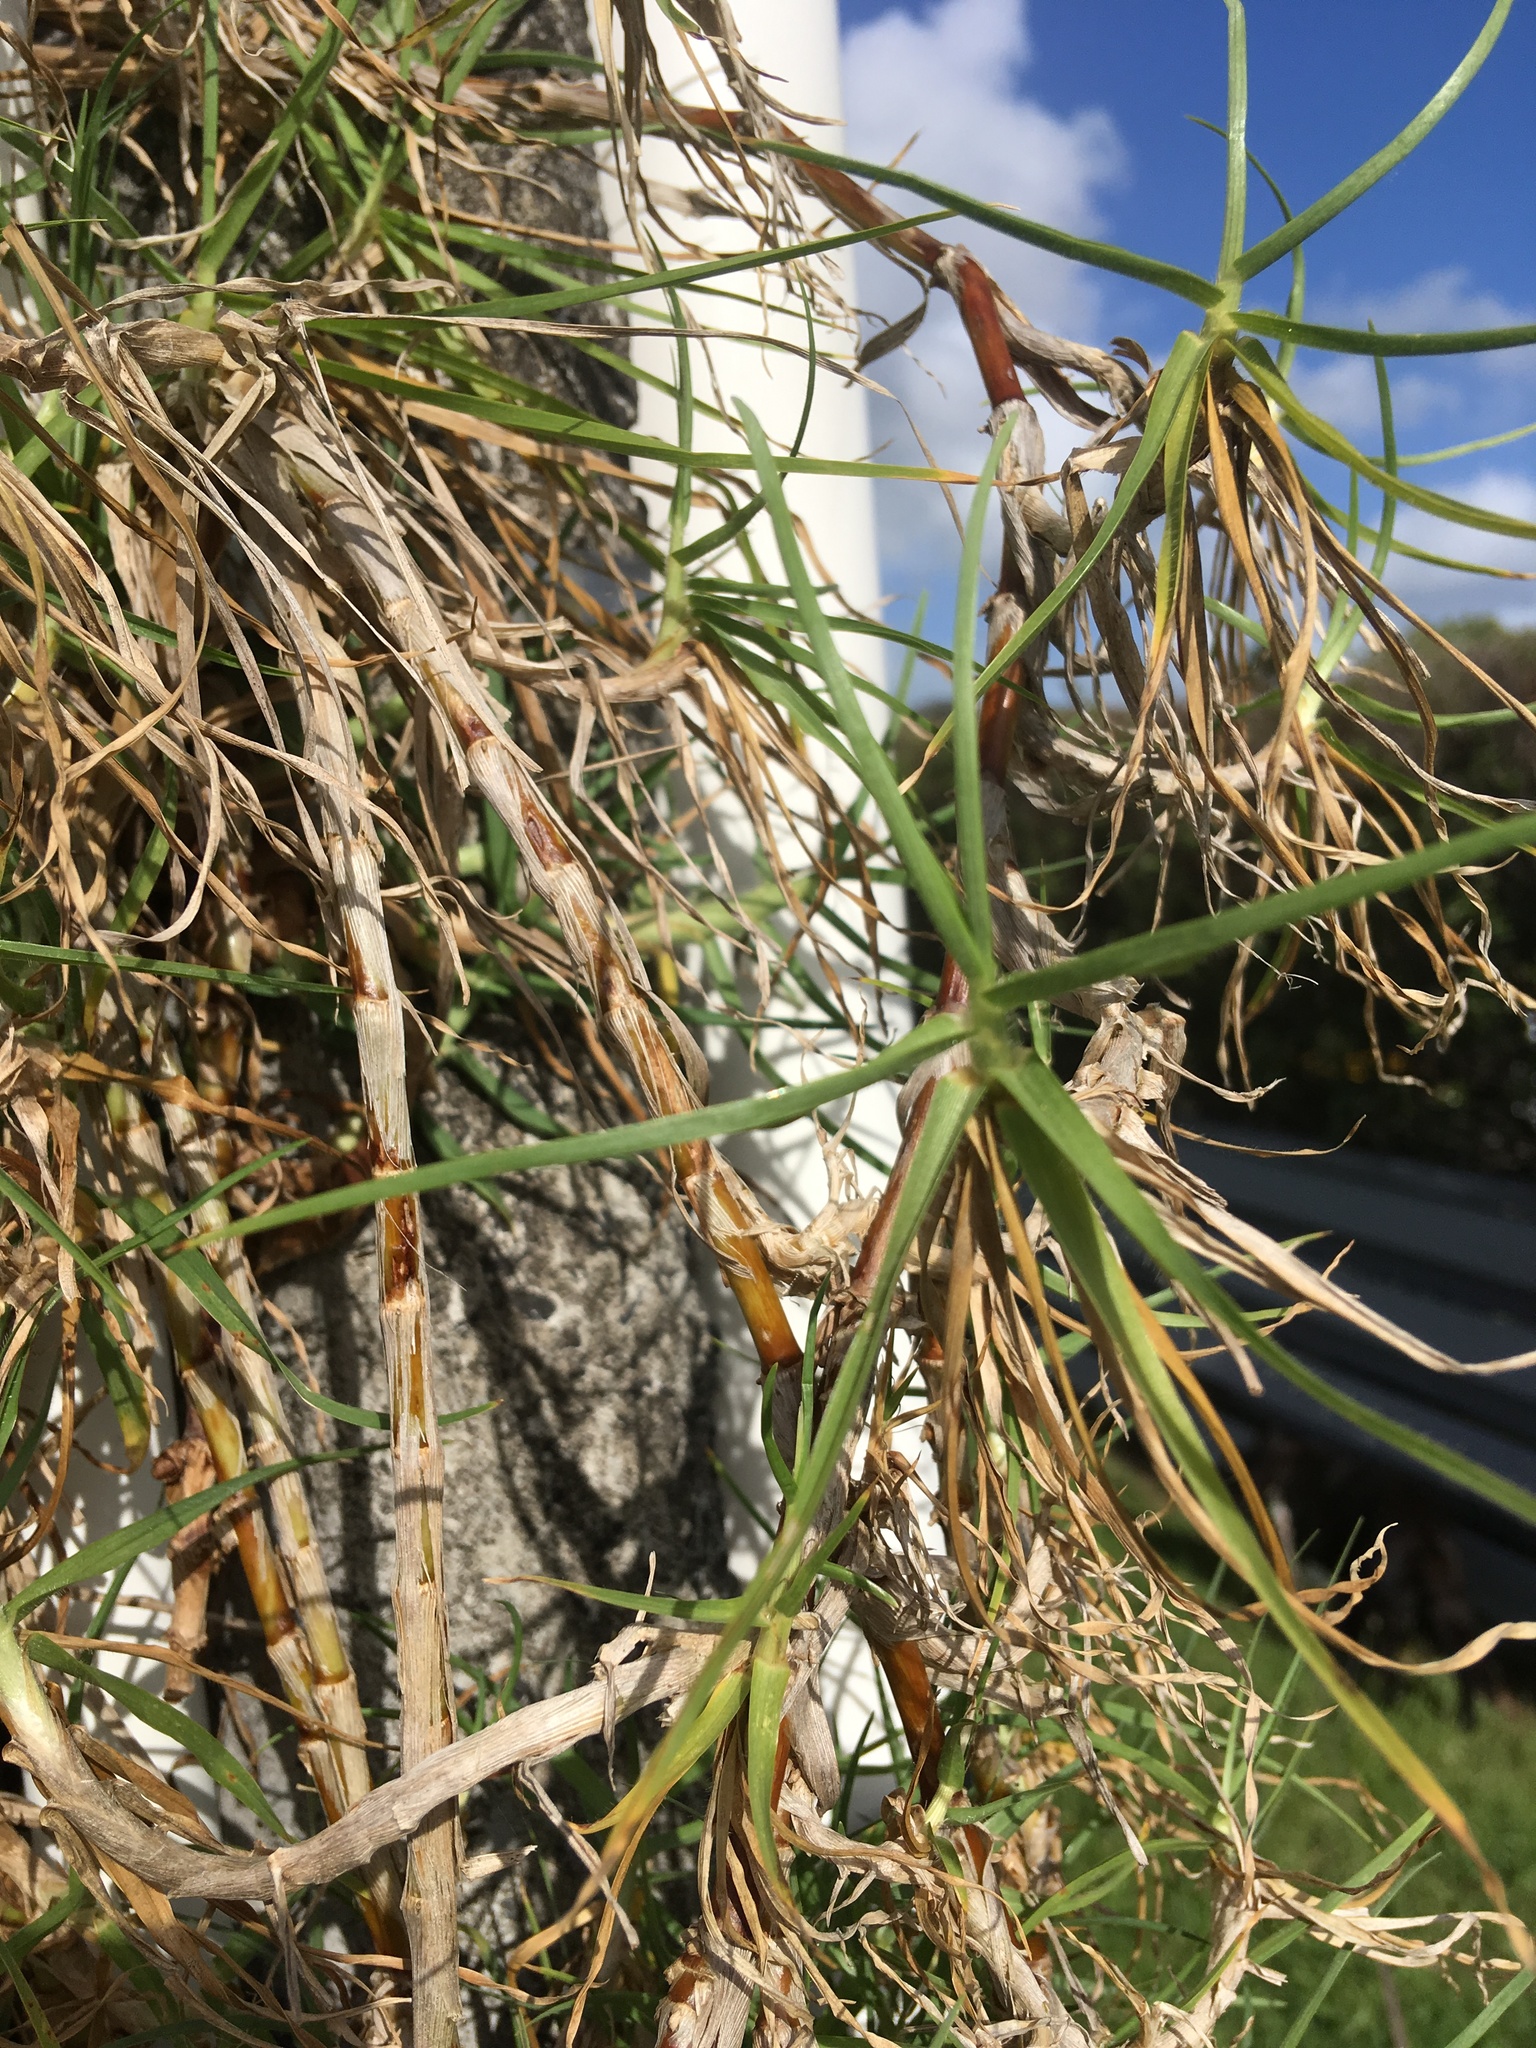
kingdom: Plantae
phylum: Tracheophyta
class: Liliopsida
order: Poales
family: Poaceae
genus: Cenchrus
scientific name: Cenchrus clandestinus
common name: Kikuyugrass
